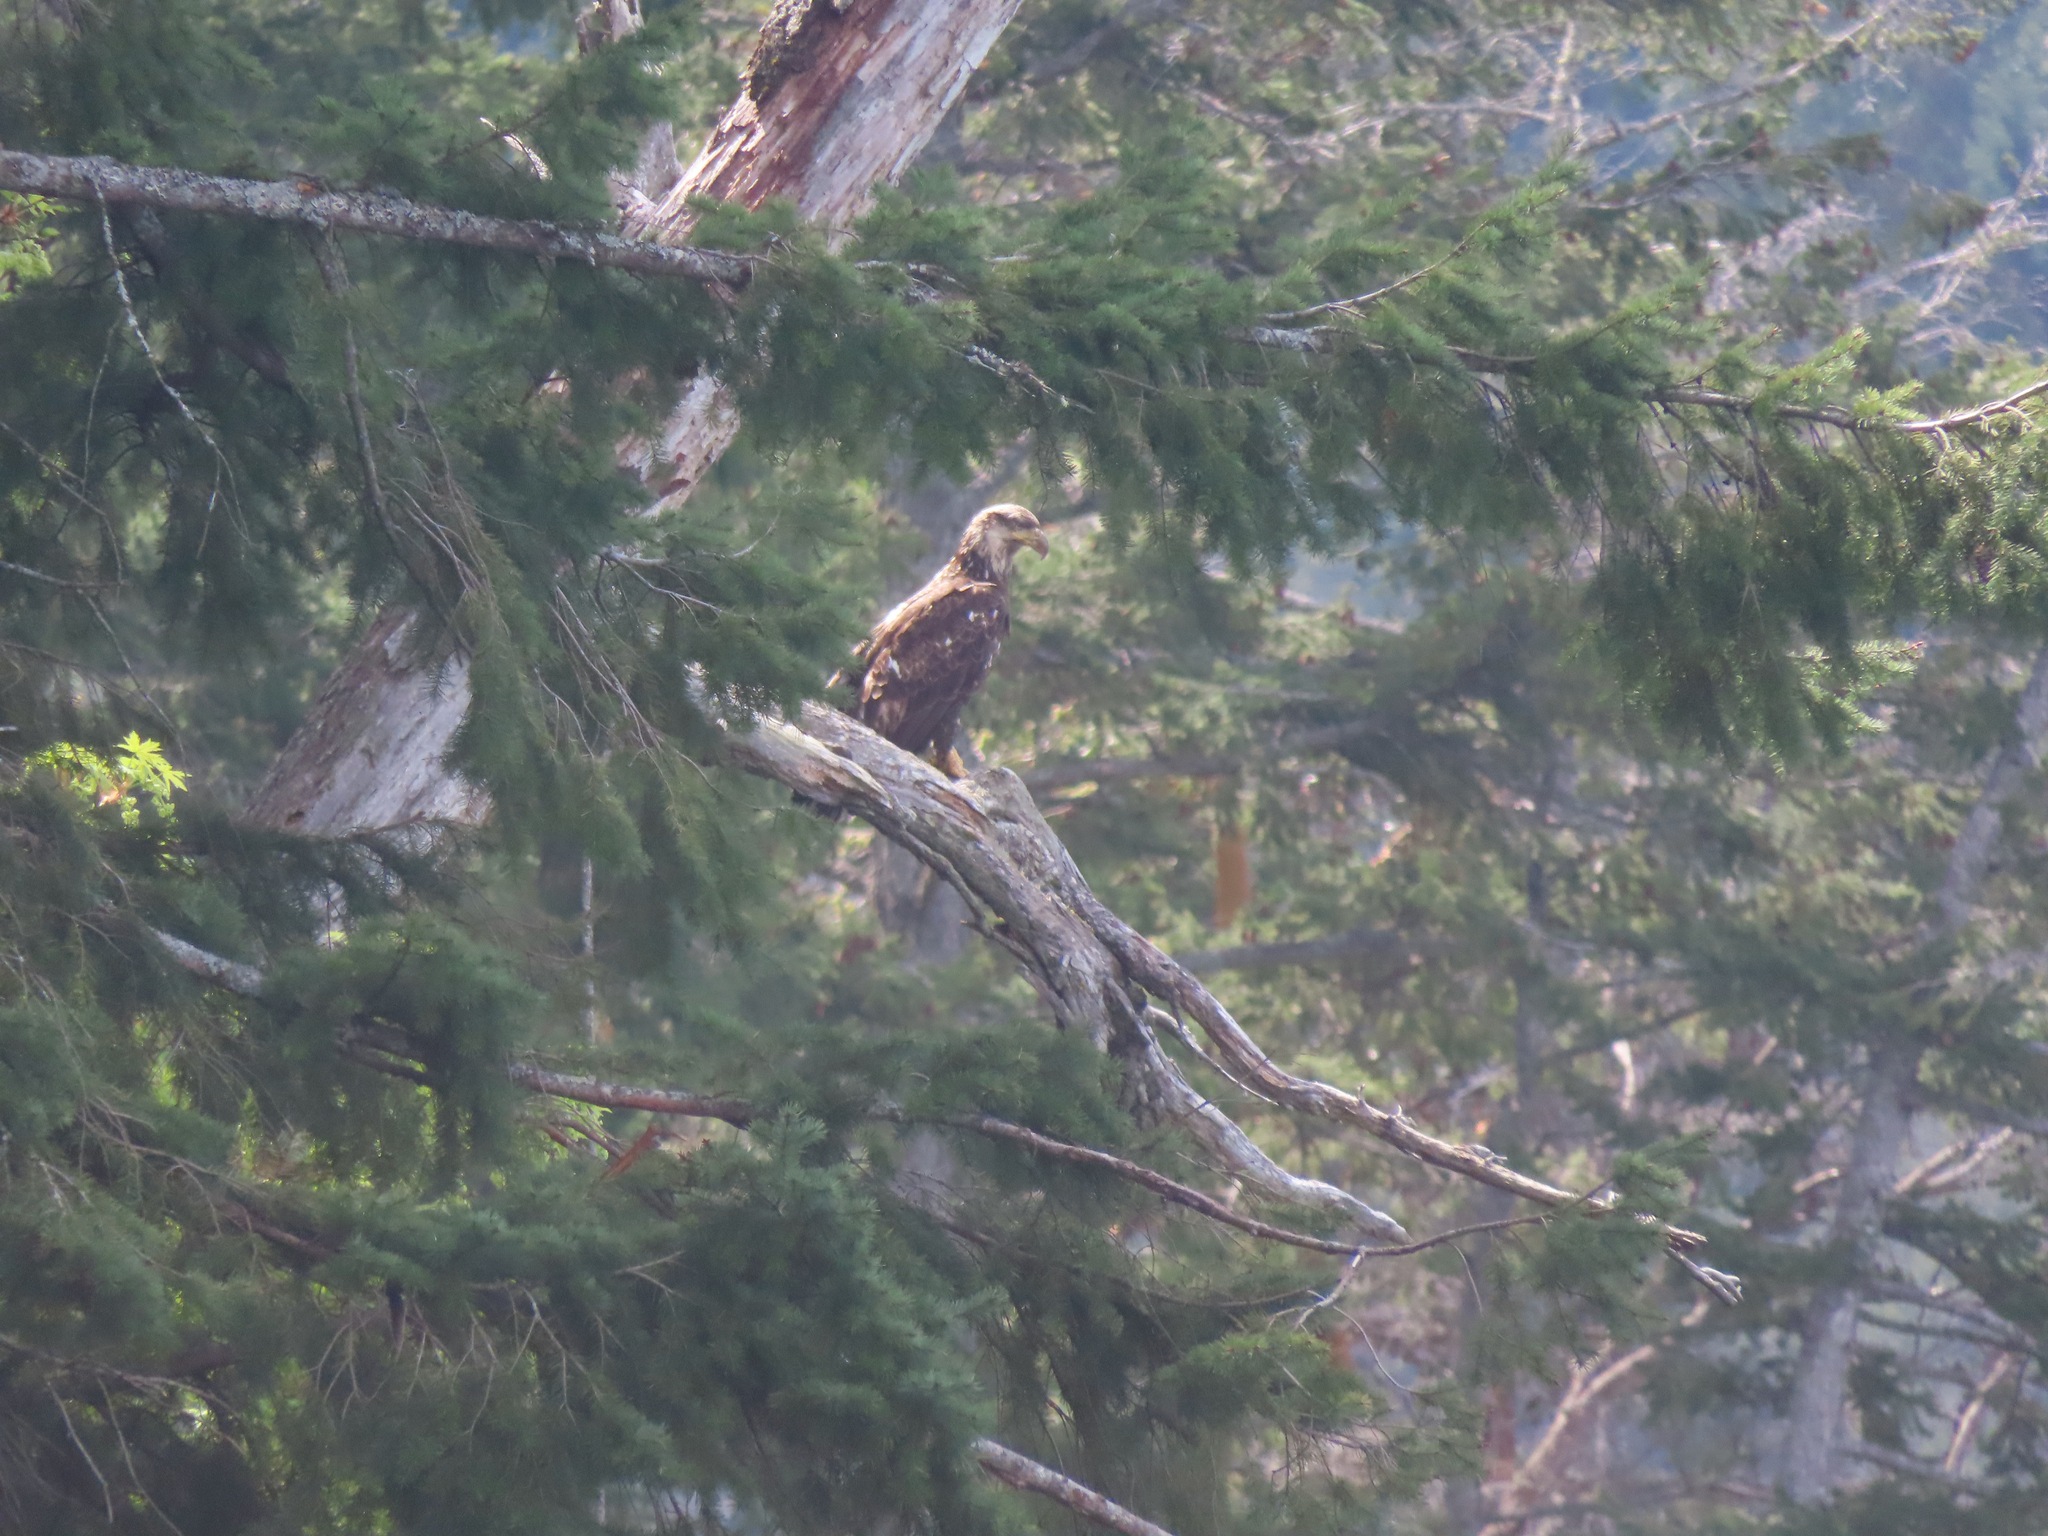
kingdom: Animalia
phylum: Chordata
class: Aves
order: Accipitriformes
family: Accipitridae
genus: Haliaeetus
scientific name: Haliaeetus leucocephalus
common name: Bald eagle
